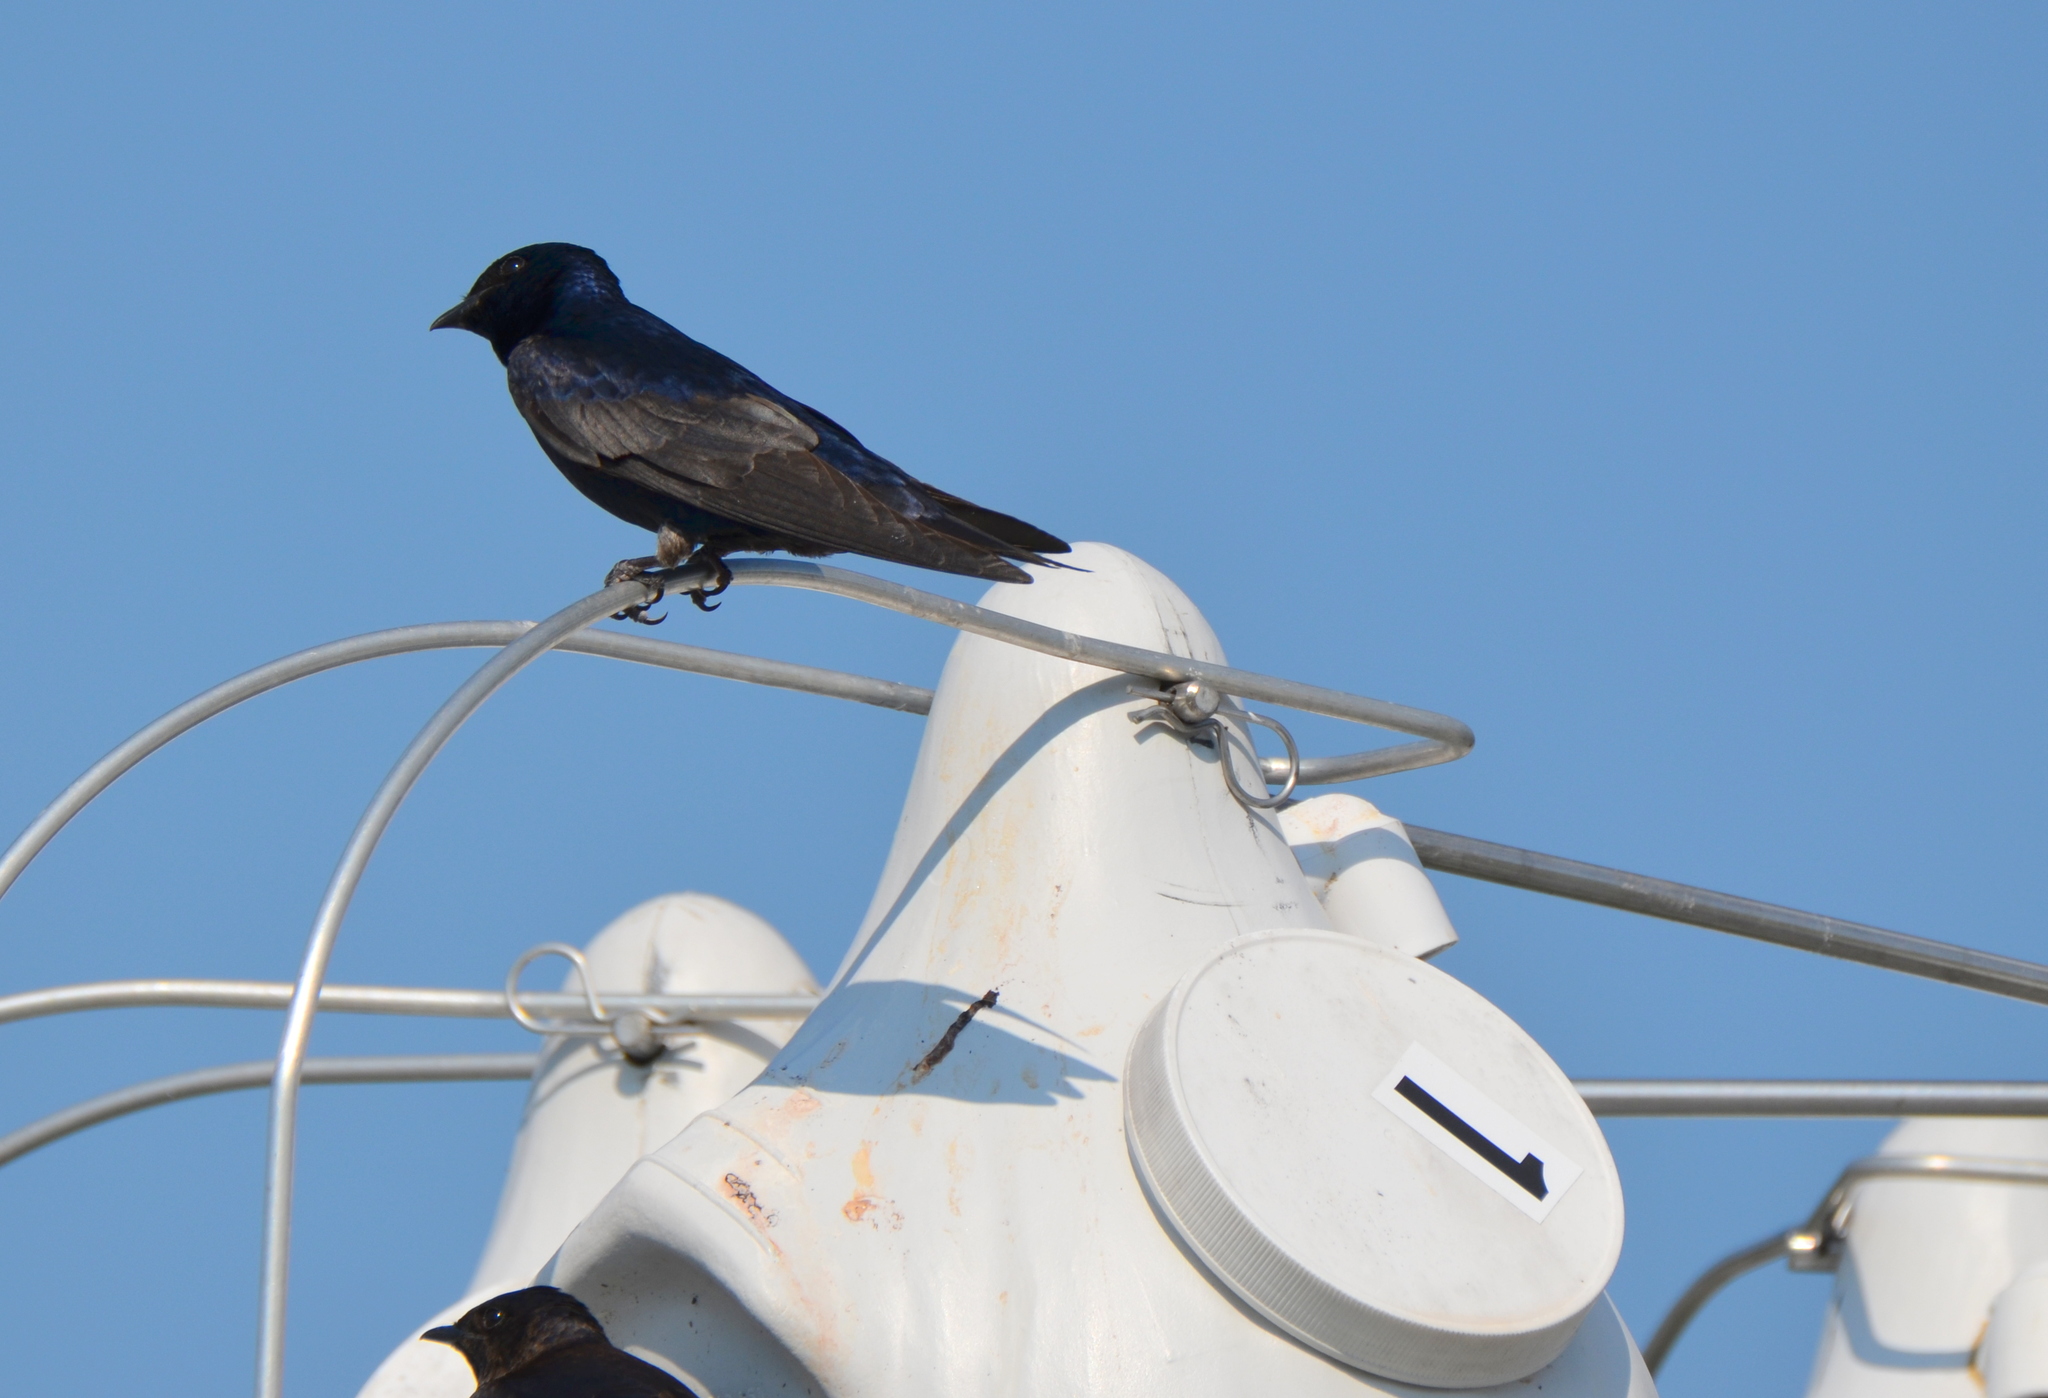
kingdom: Animalia
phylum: Chordata
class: Aves
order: Passeriformes
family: Hirundinidae
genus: Progne
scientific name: Progne subis
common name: Purple martin
